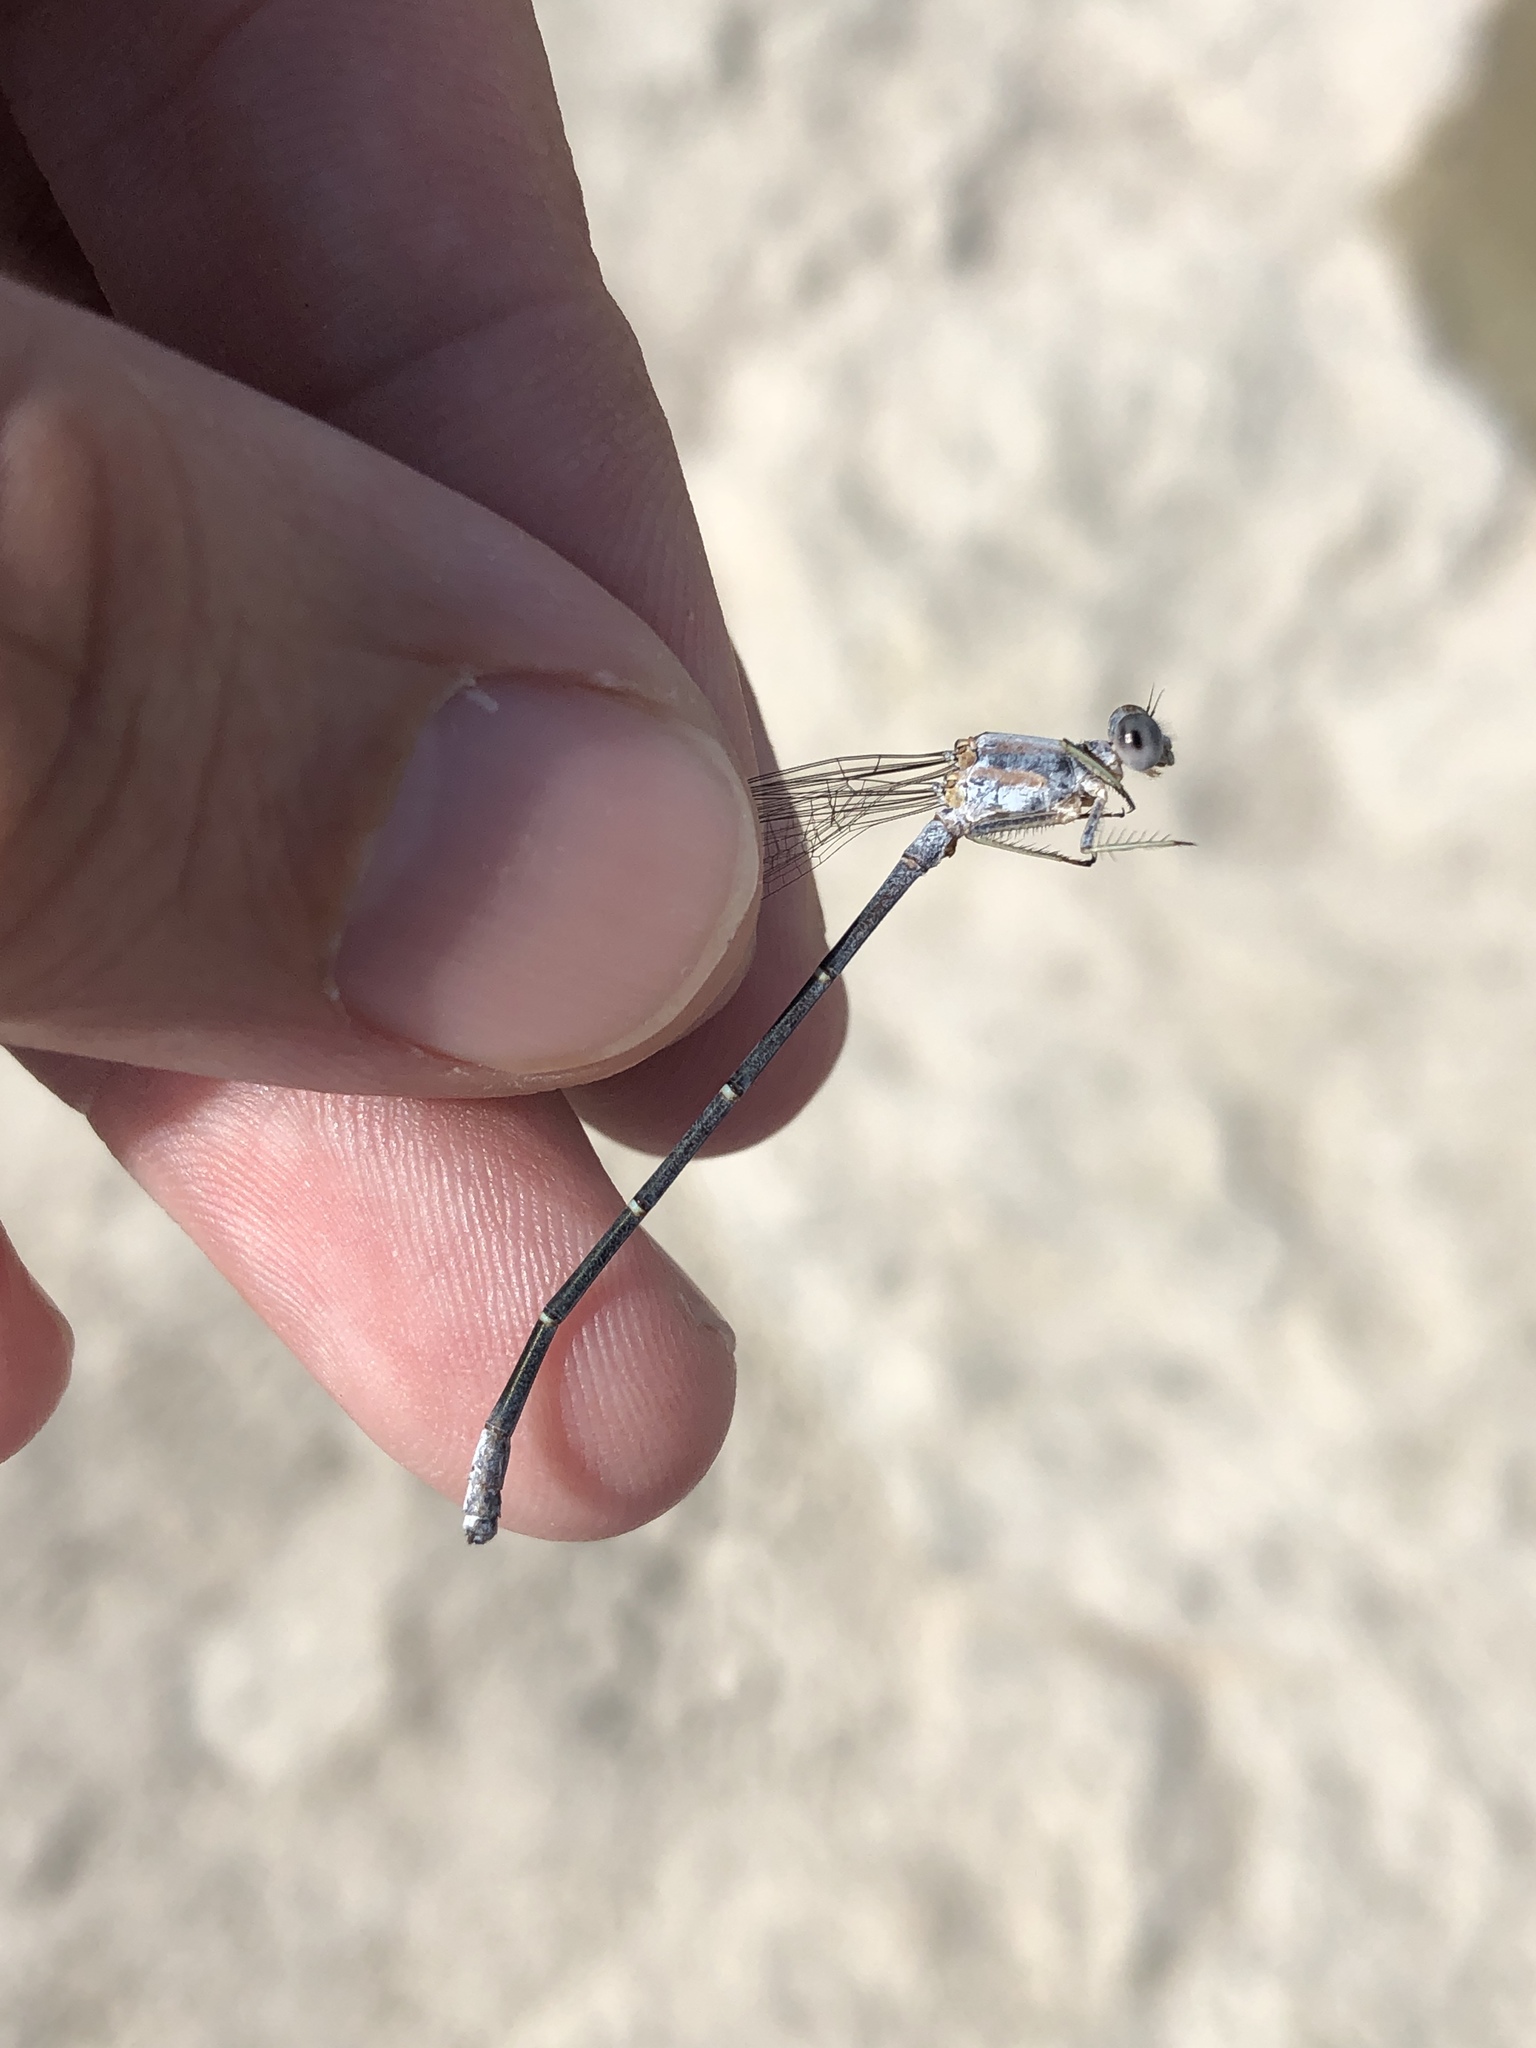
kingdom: Animalia
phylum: Arthropoda
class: Insecta
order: Odonata
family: Coenagrionidae
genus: Argia
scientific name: Argia moesta
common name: Powdered dancer
